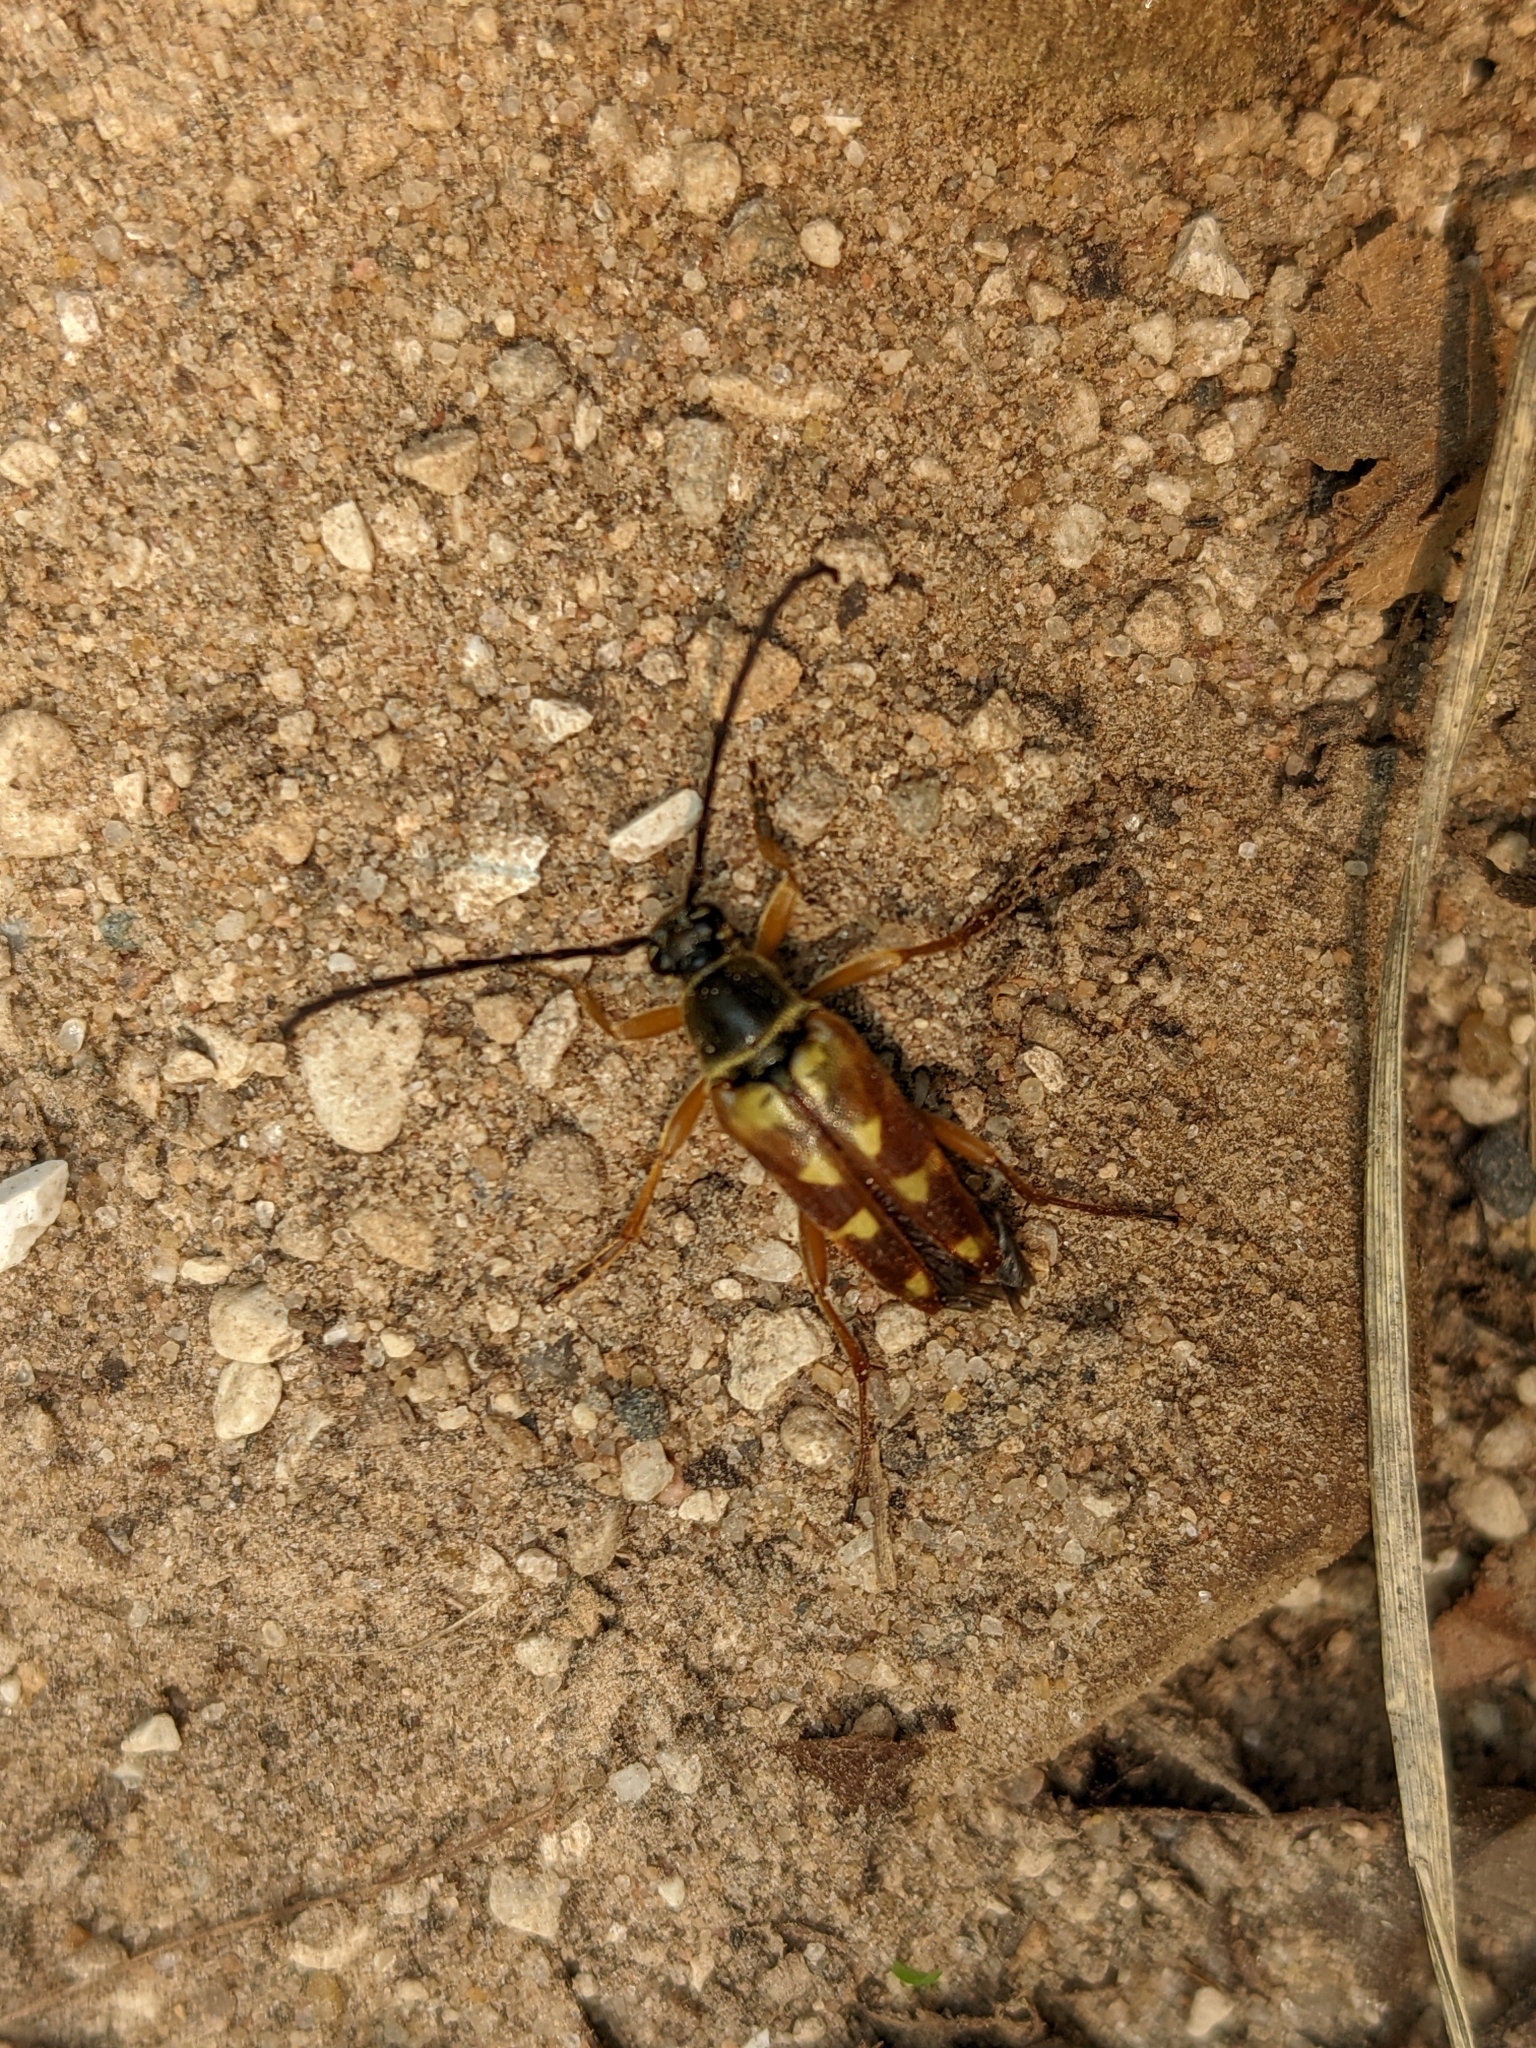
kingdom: Animalia
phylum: Arthropoda
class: Insecta
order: Coleoptera
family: Cerambycidae
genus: Typocerus
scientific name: Typocerus velutinus
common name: Banded longhorn beetle
